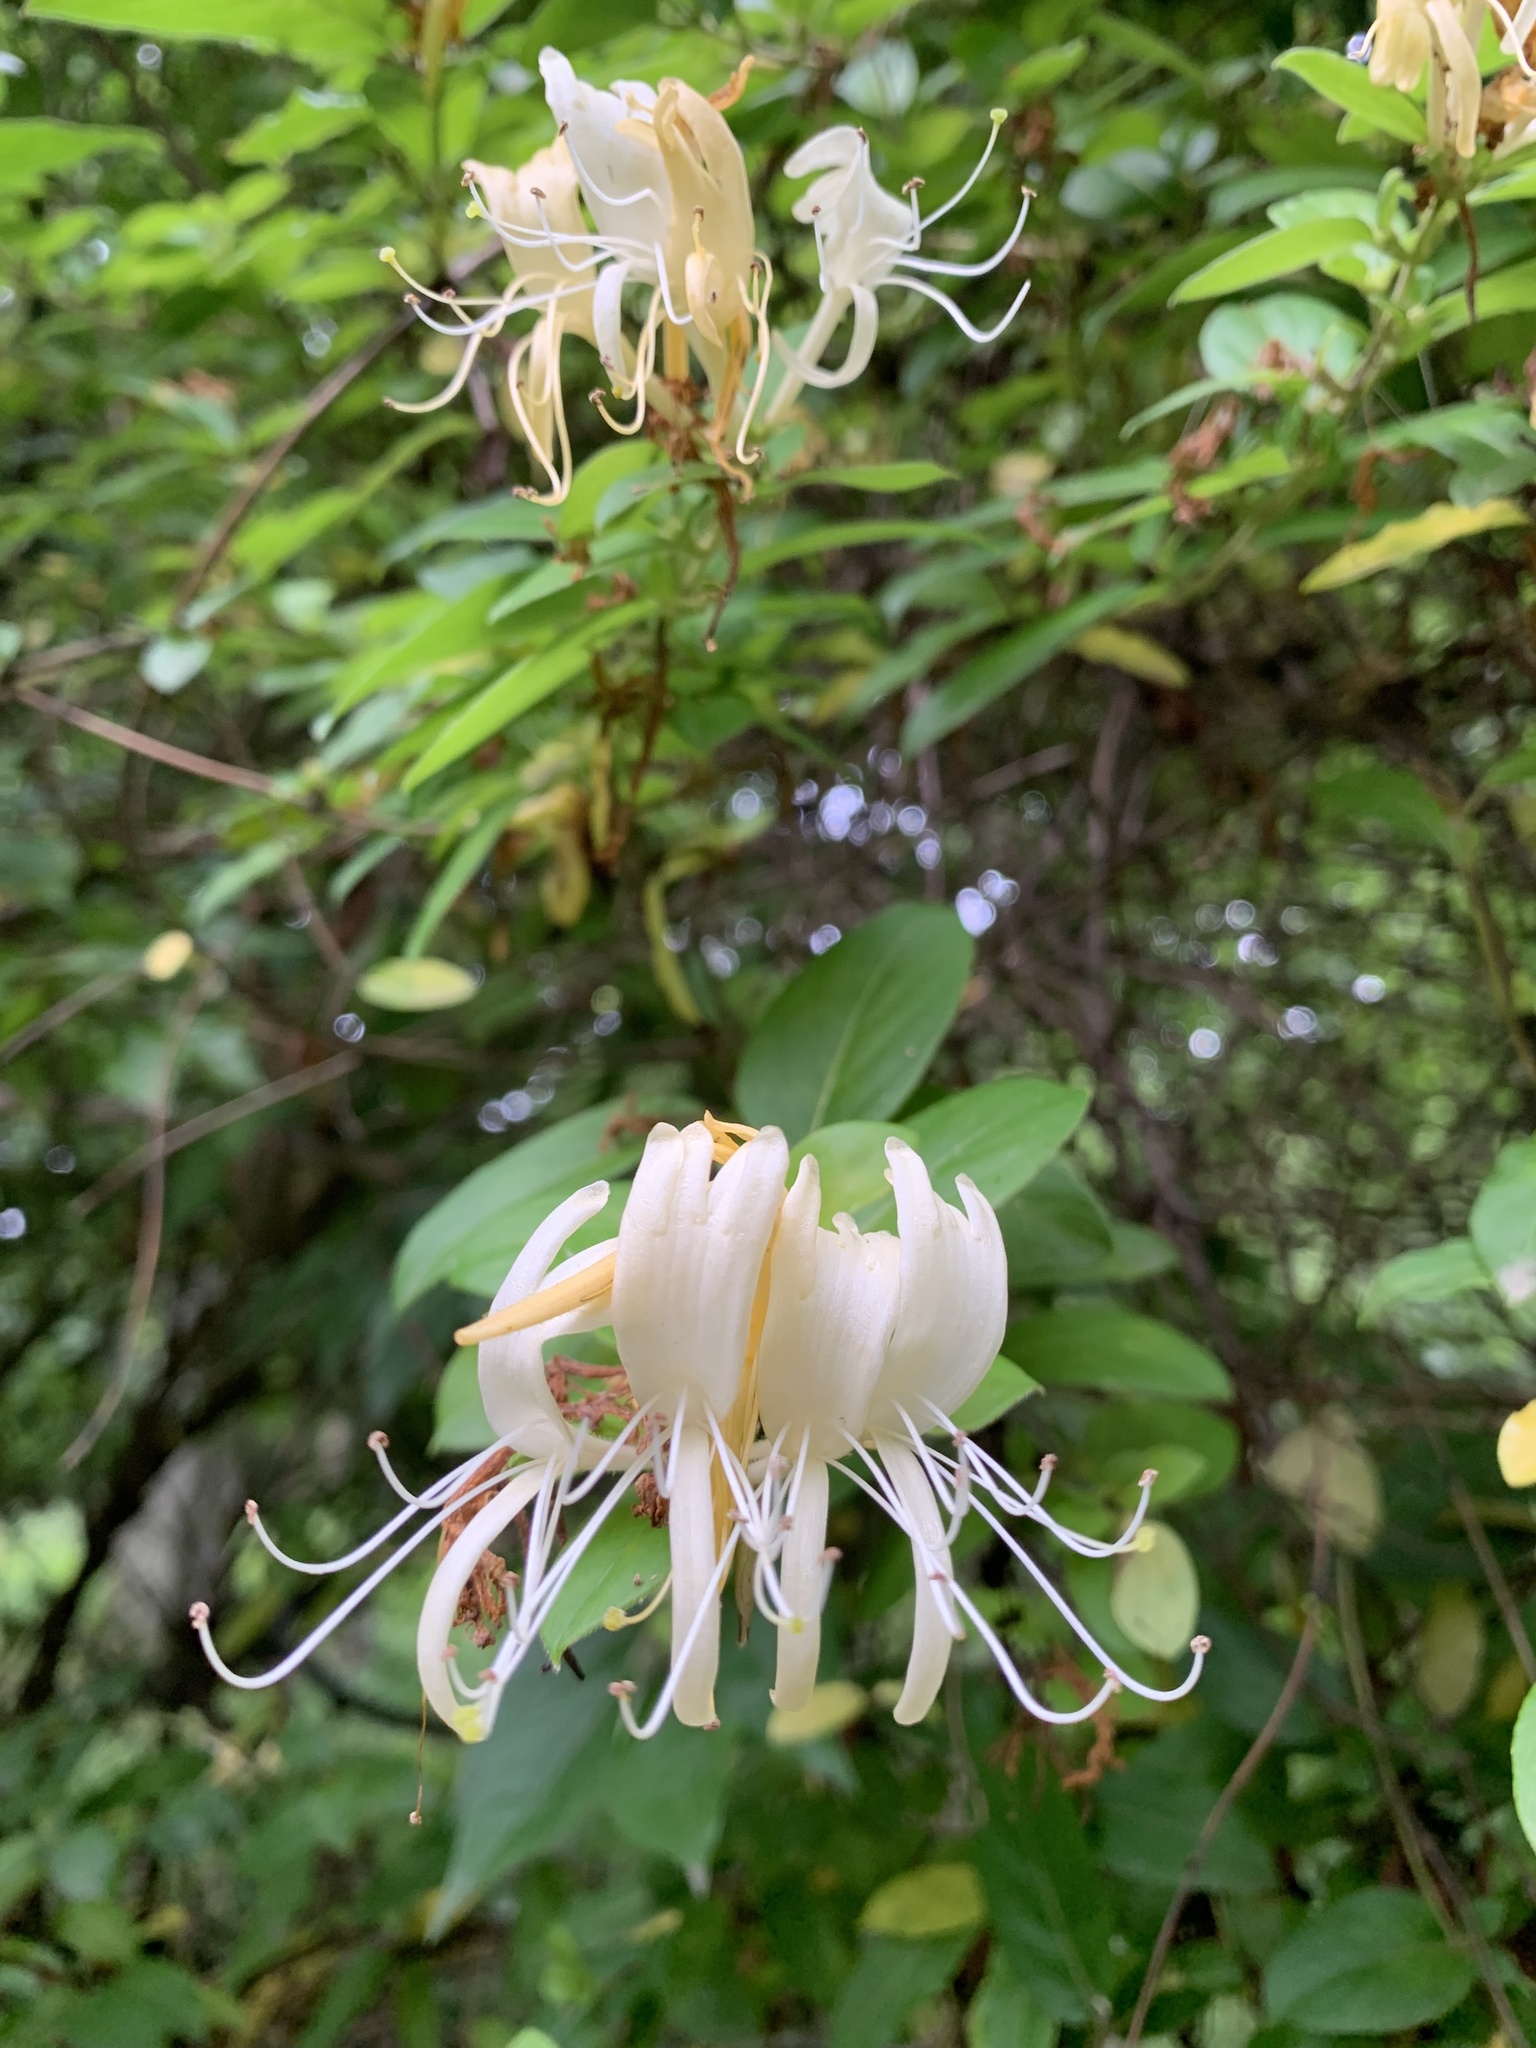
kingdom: Plantae
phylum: Tracheophyta
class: Magnoliopsida
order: Dipsacales
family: Caprifoliaceae
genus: Lonicera
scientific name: Lonicera japonica
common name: Japanese honeysuckle
